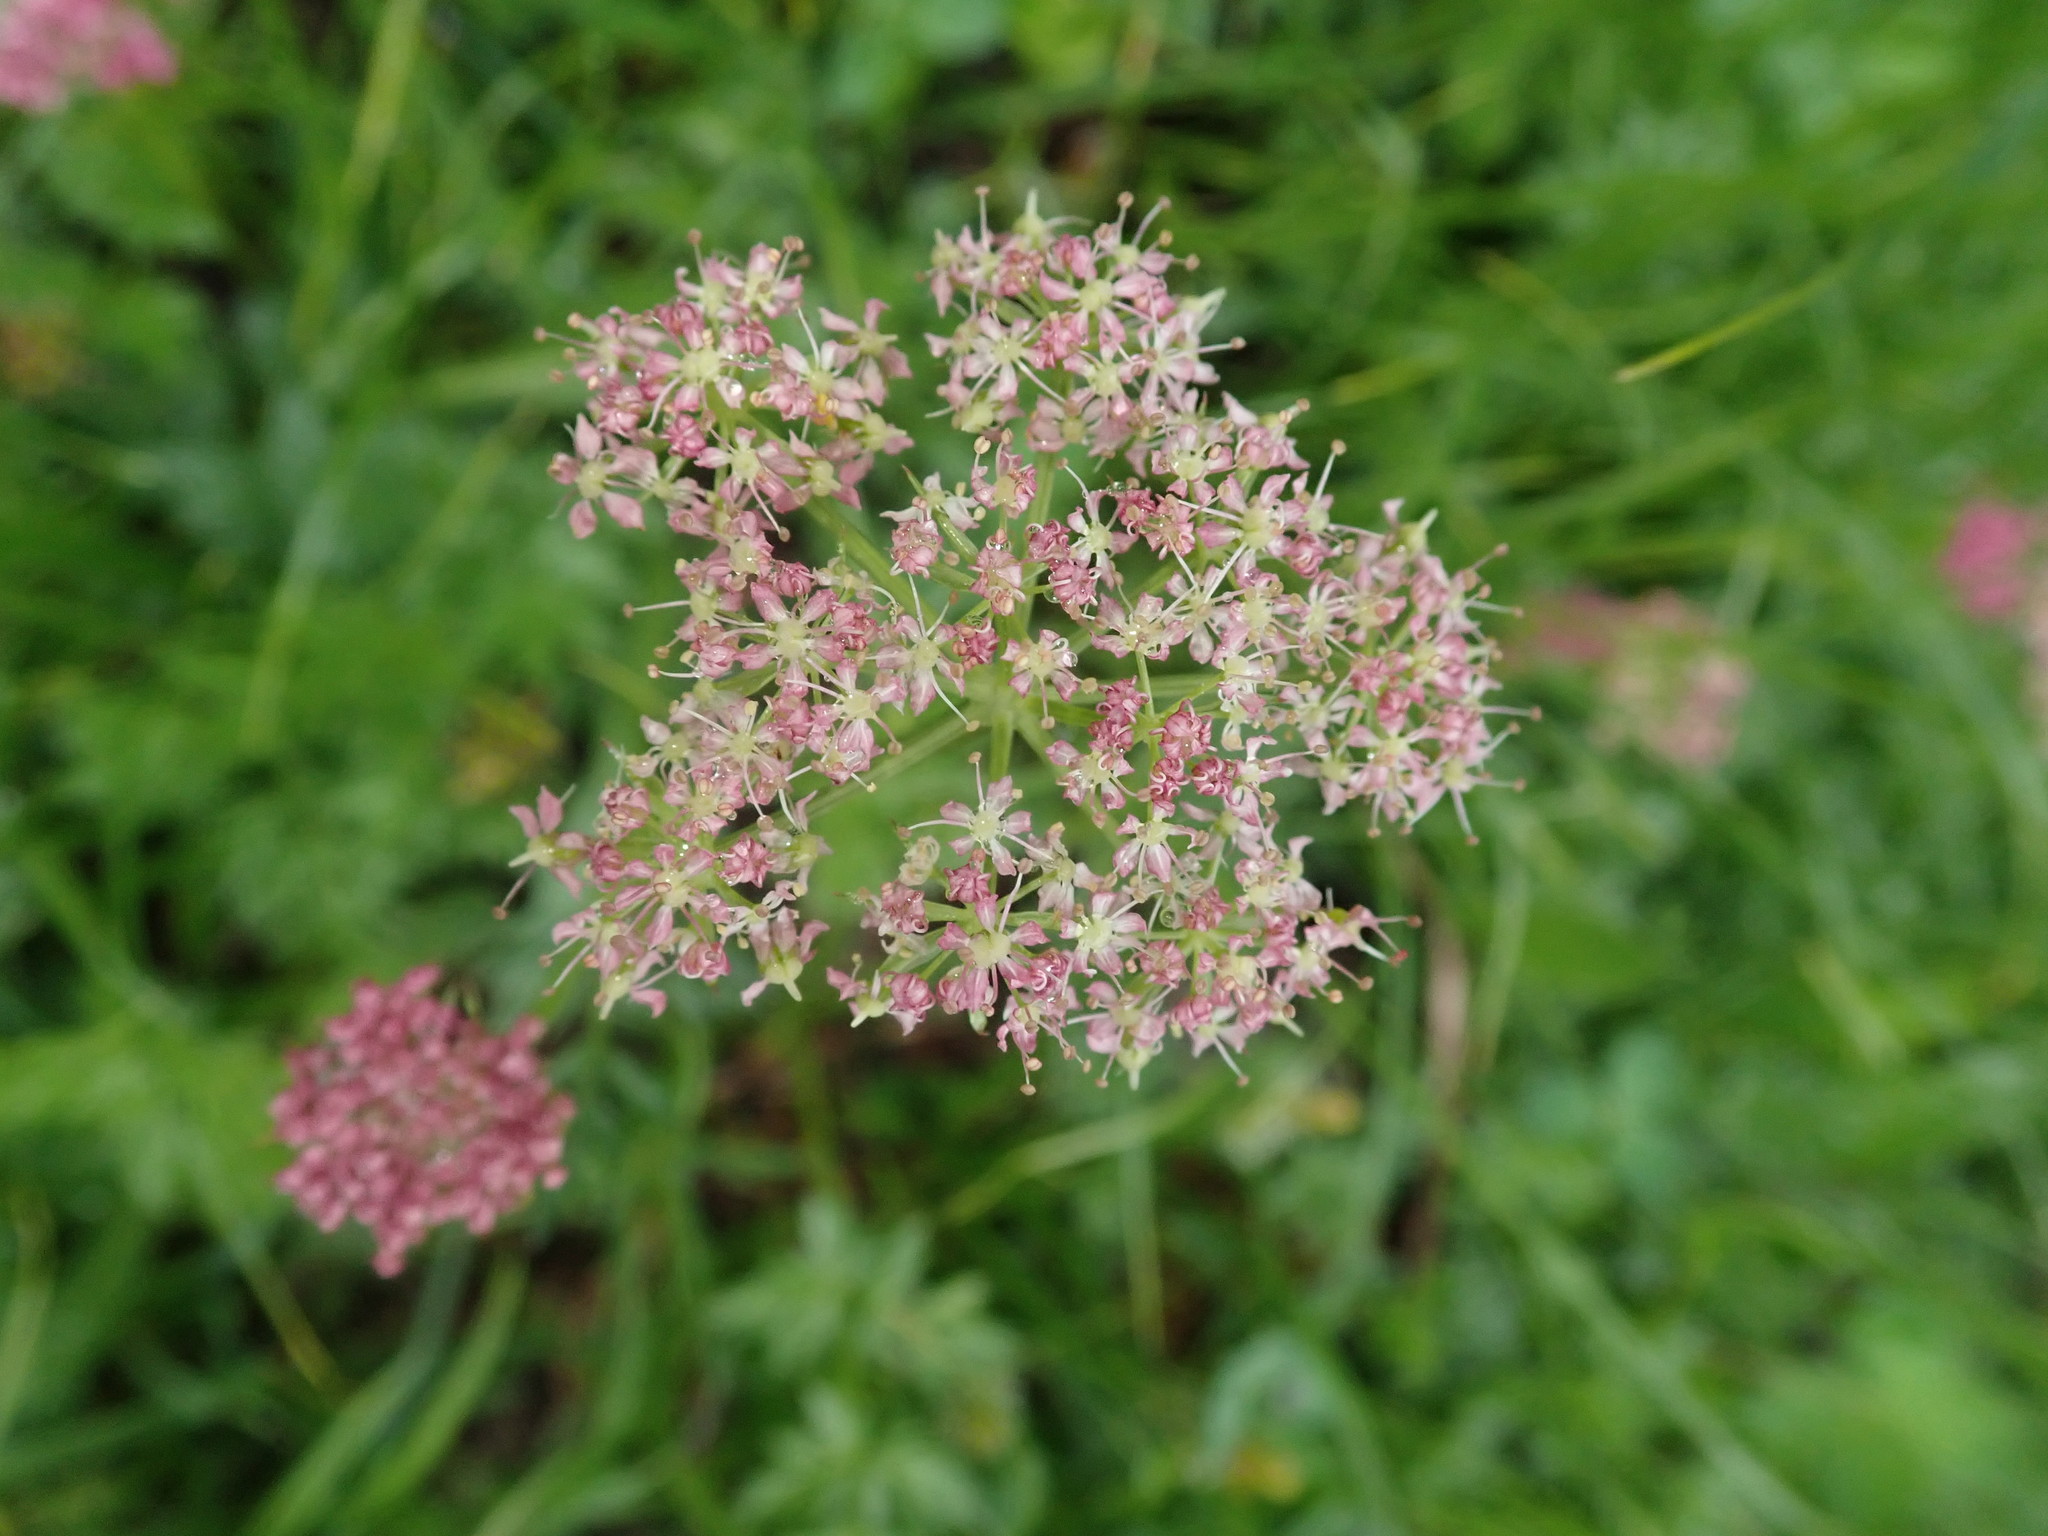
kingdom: Plantae
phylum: Tracheophyta
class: Magnoliopsida
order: Apiales
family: Apiaceae
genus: Mutellina
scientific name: Mutellina adonidifolia
